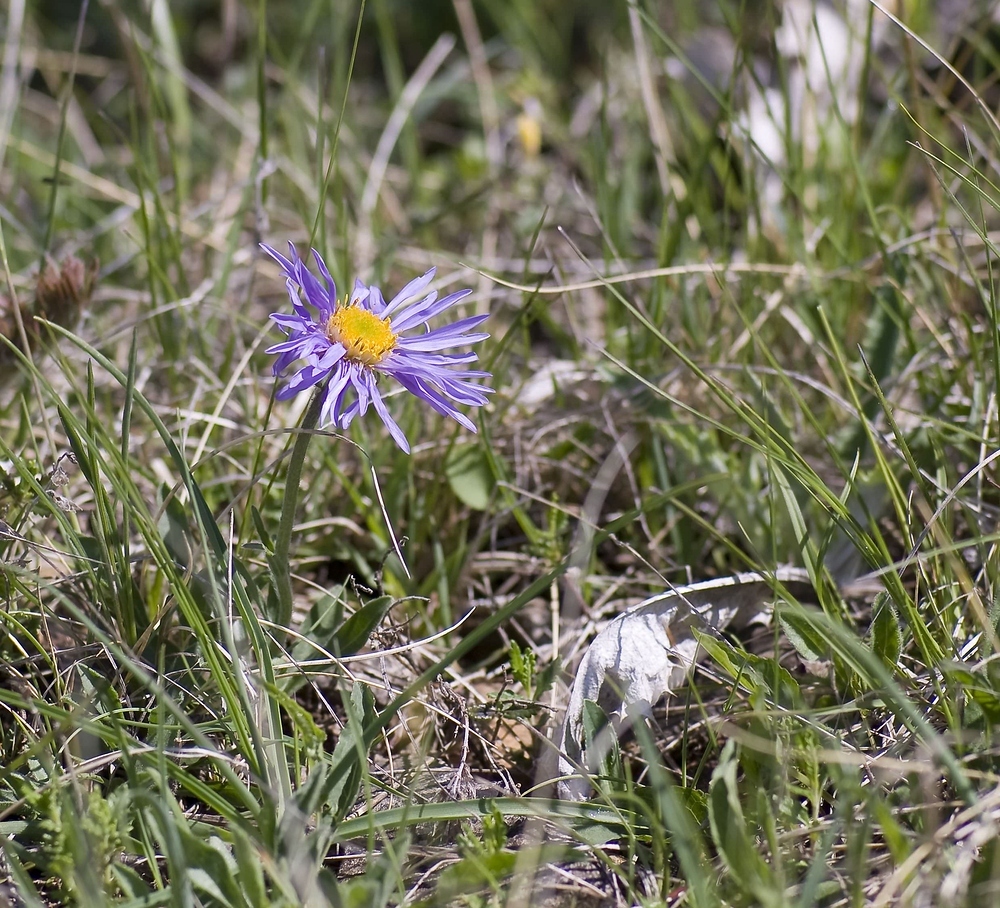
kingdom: Plantae
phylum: Tracheophyta
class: Magnoliopsida
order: Asterales
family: Asteraceae
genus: Aster
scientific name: Aster alpinus
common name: Alpine aster
